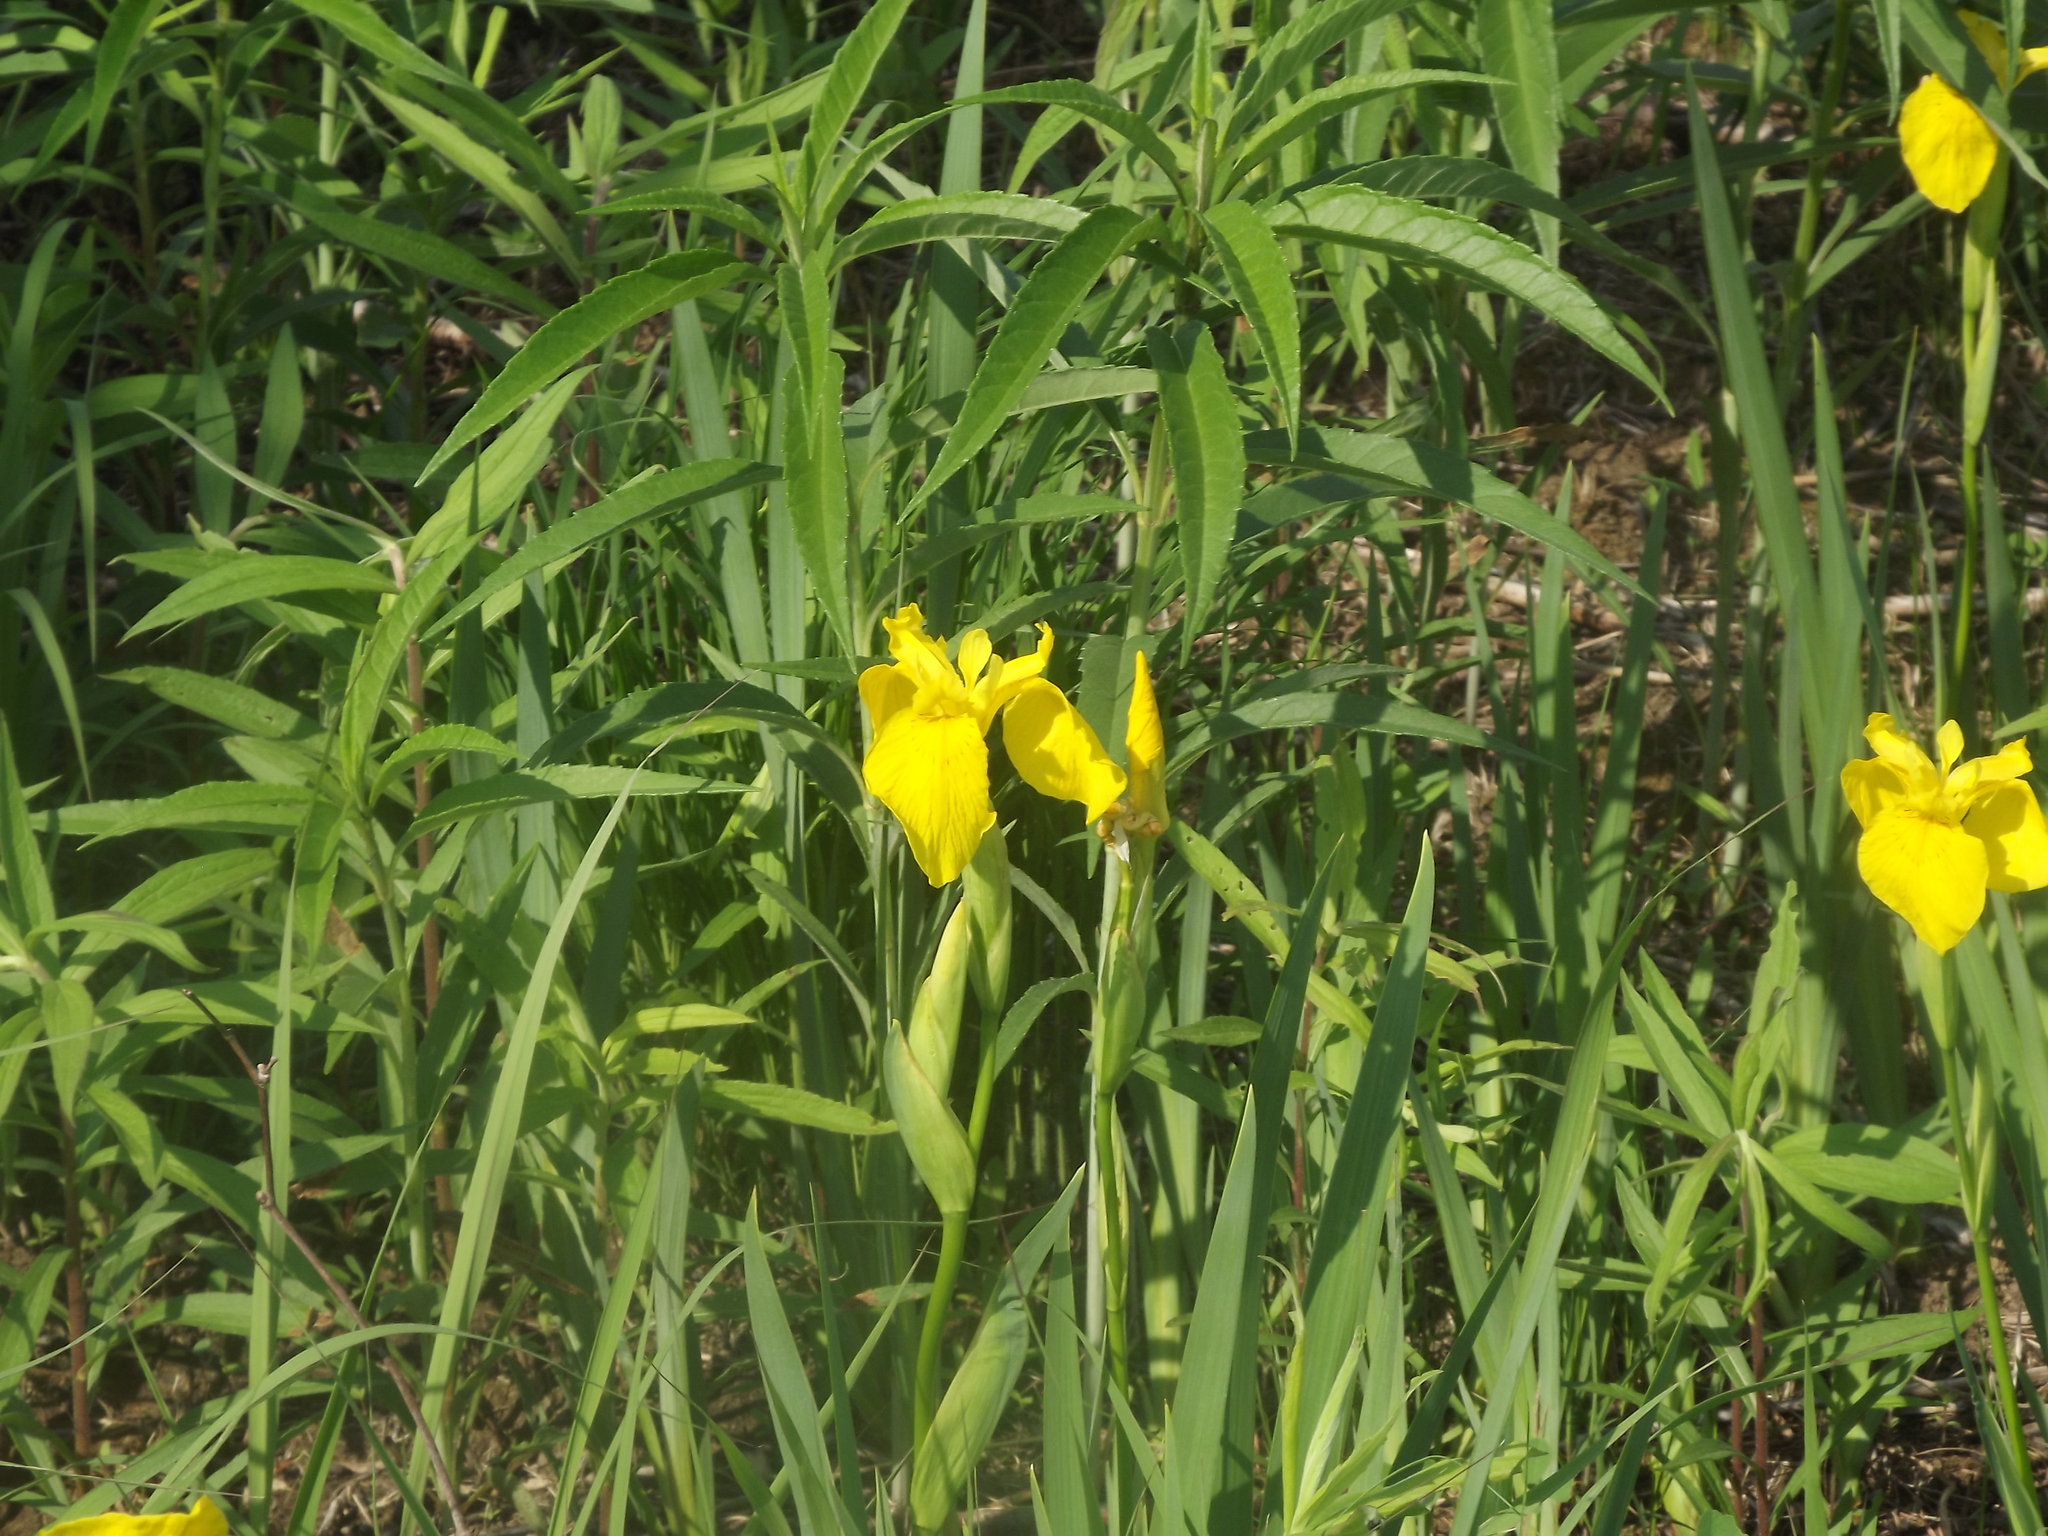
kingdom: Plantae
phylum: Tracheophyta
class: Liliopsida
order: Asparagales
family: Iridaceae
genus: Iris
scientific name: Iris pseudacorus
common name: Yellow flag
